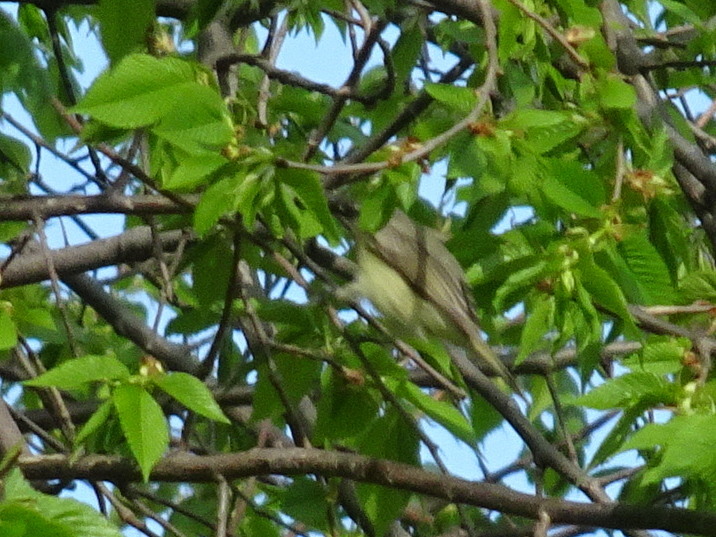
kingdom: Animalia
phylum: Chordata
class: Aves
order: Passeriformes
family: Vireonidae
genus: Vireo
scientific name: Vireo gilvus
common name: Warbling vireo
